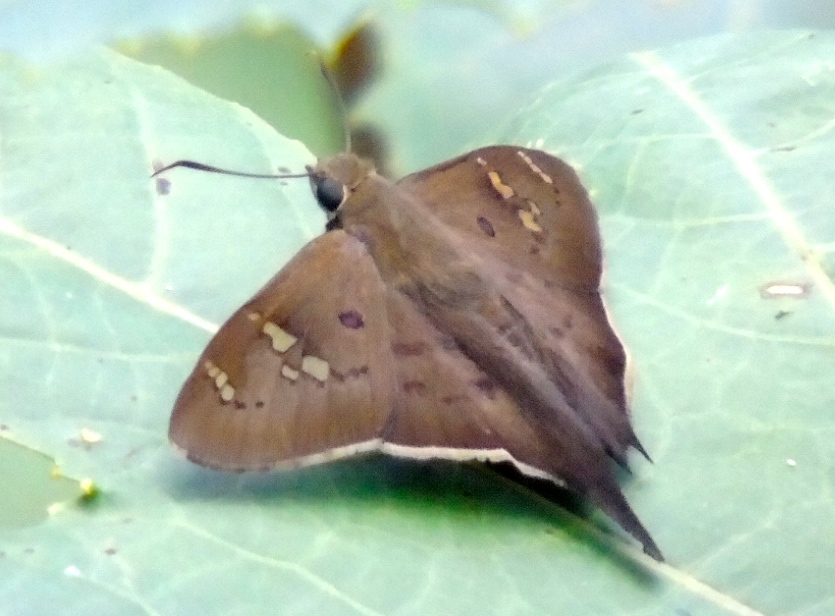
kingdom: Animalia
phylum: Arthropoda
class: Insecta
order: Lepidoptera
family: Hesperiidae
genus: Ectomis
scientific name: Ectomis
